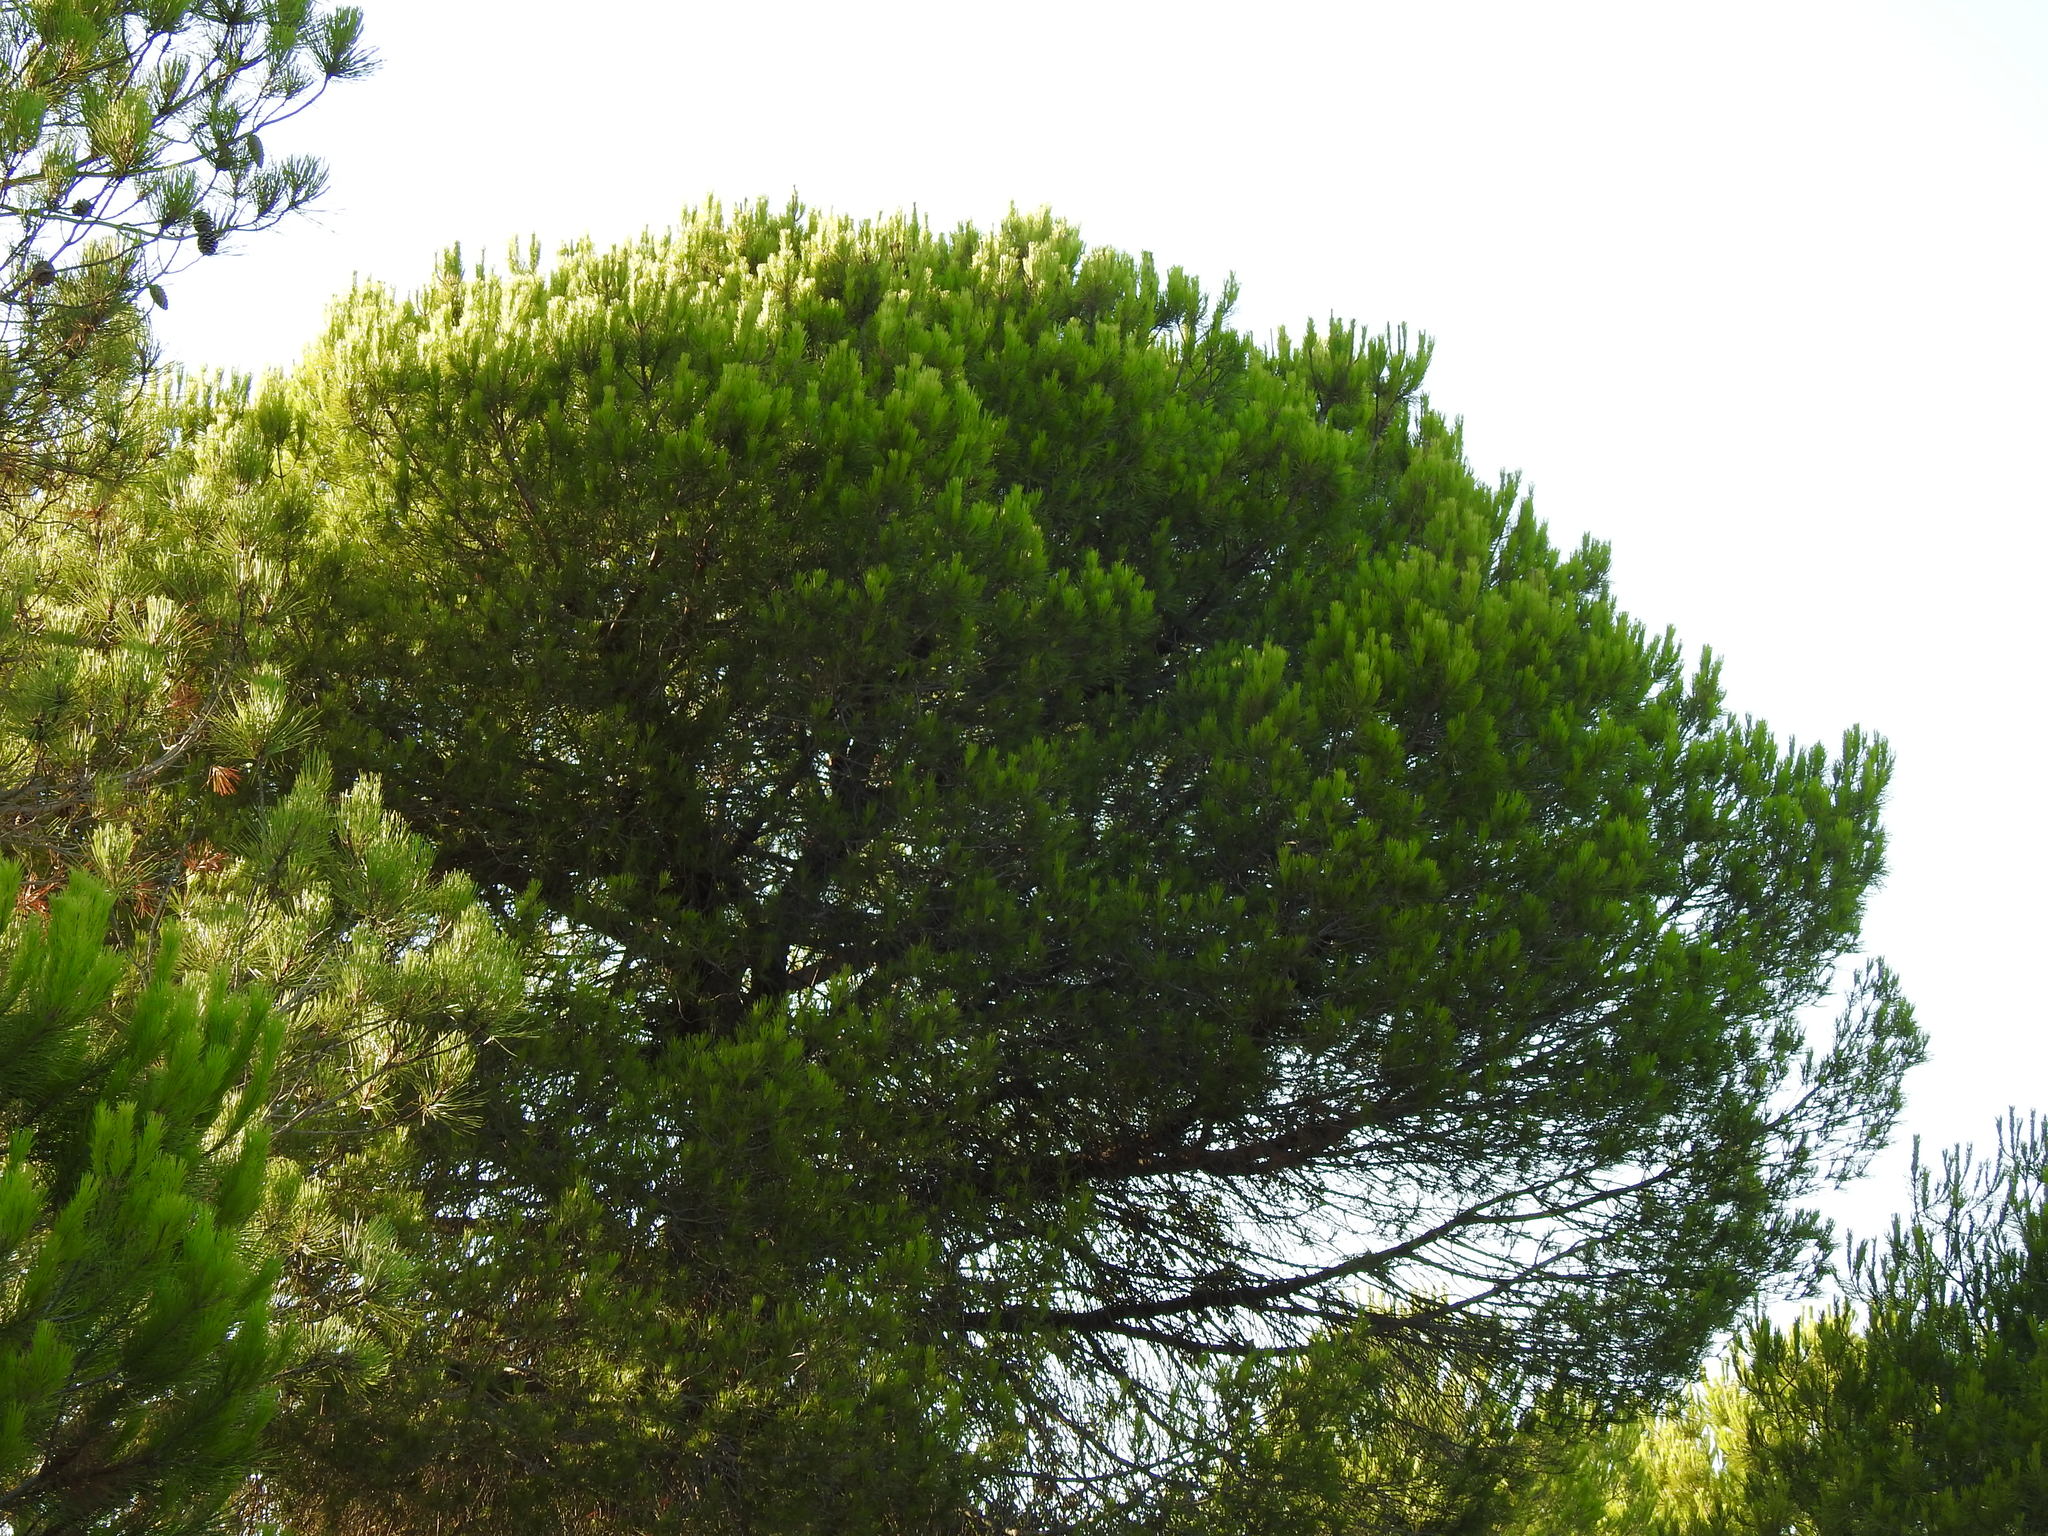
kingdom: Plantae
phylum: Tracheophyta
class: Pinopsida
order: Pinales
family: Pinaceae
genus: Pinus
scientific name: Pinus pinea
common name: Italian stone pine
